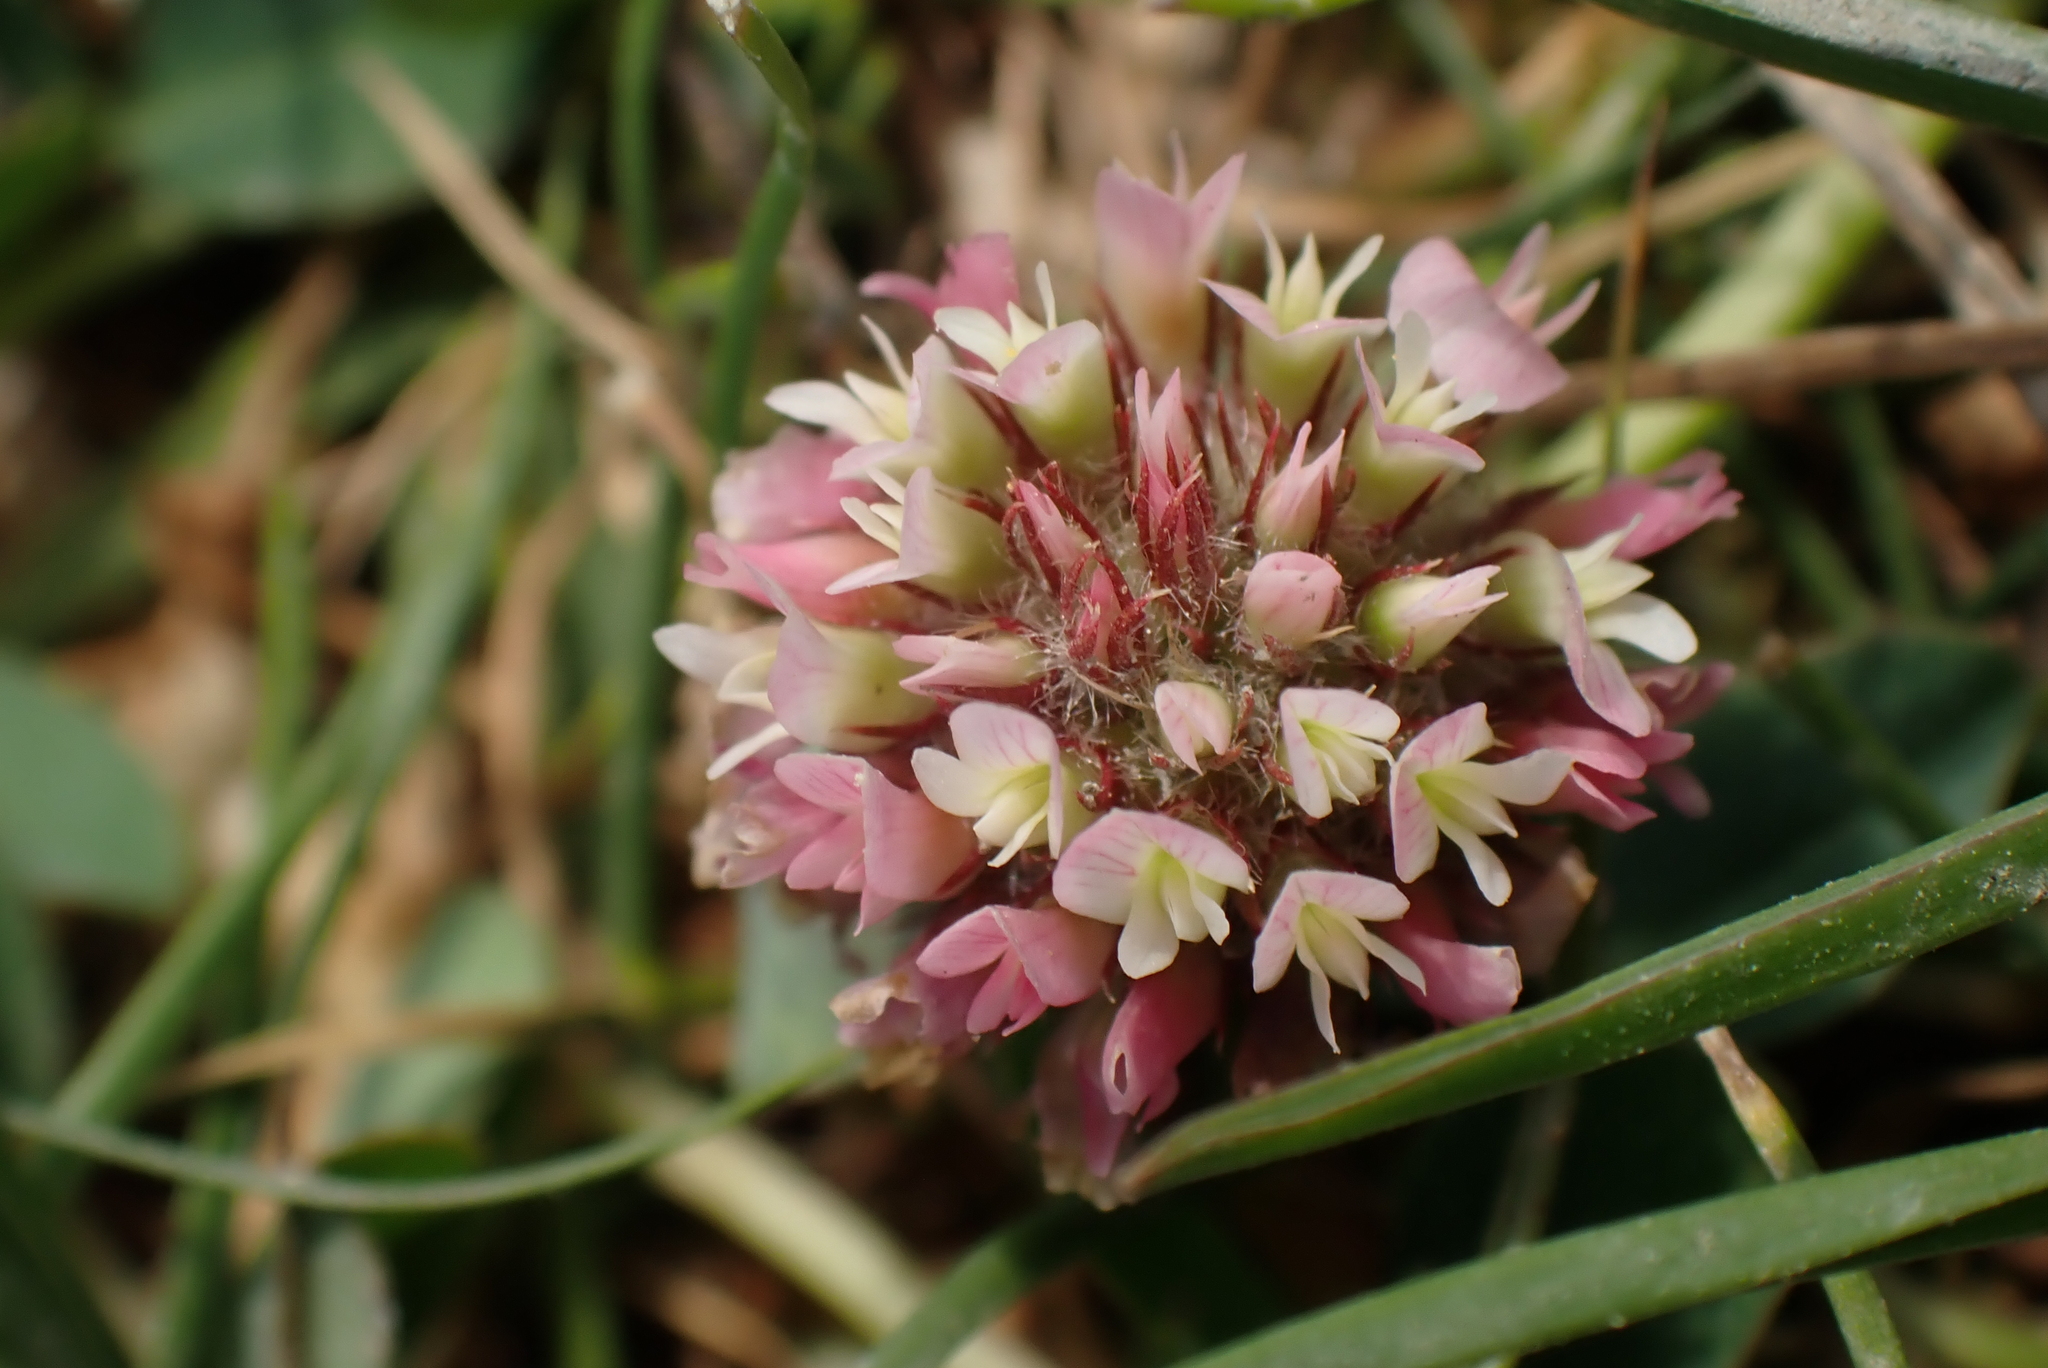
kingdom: Plantae
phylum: Tracheophyta
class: Magnoliopsida
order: Fabales
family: Fabaceae
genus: Trifolium
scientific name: Trifolium fragiferum
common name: Strawberry clover
